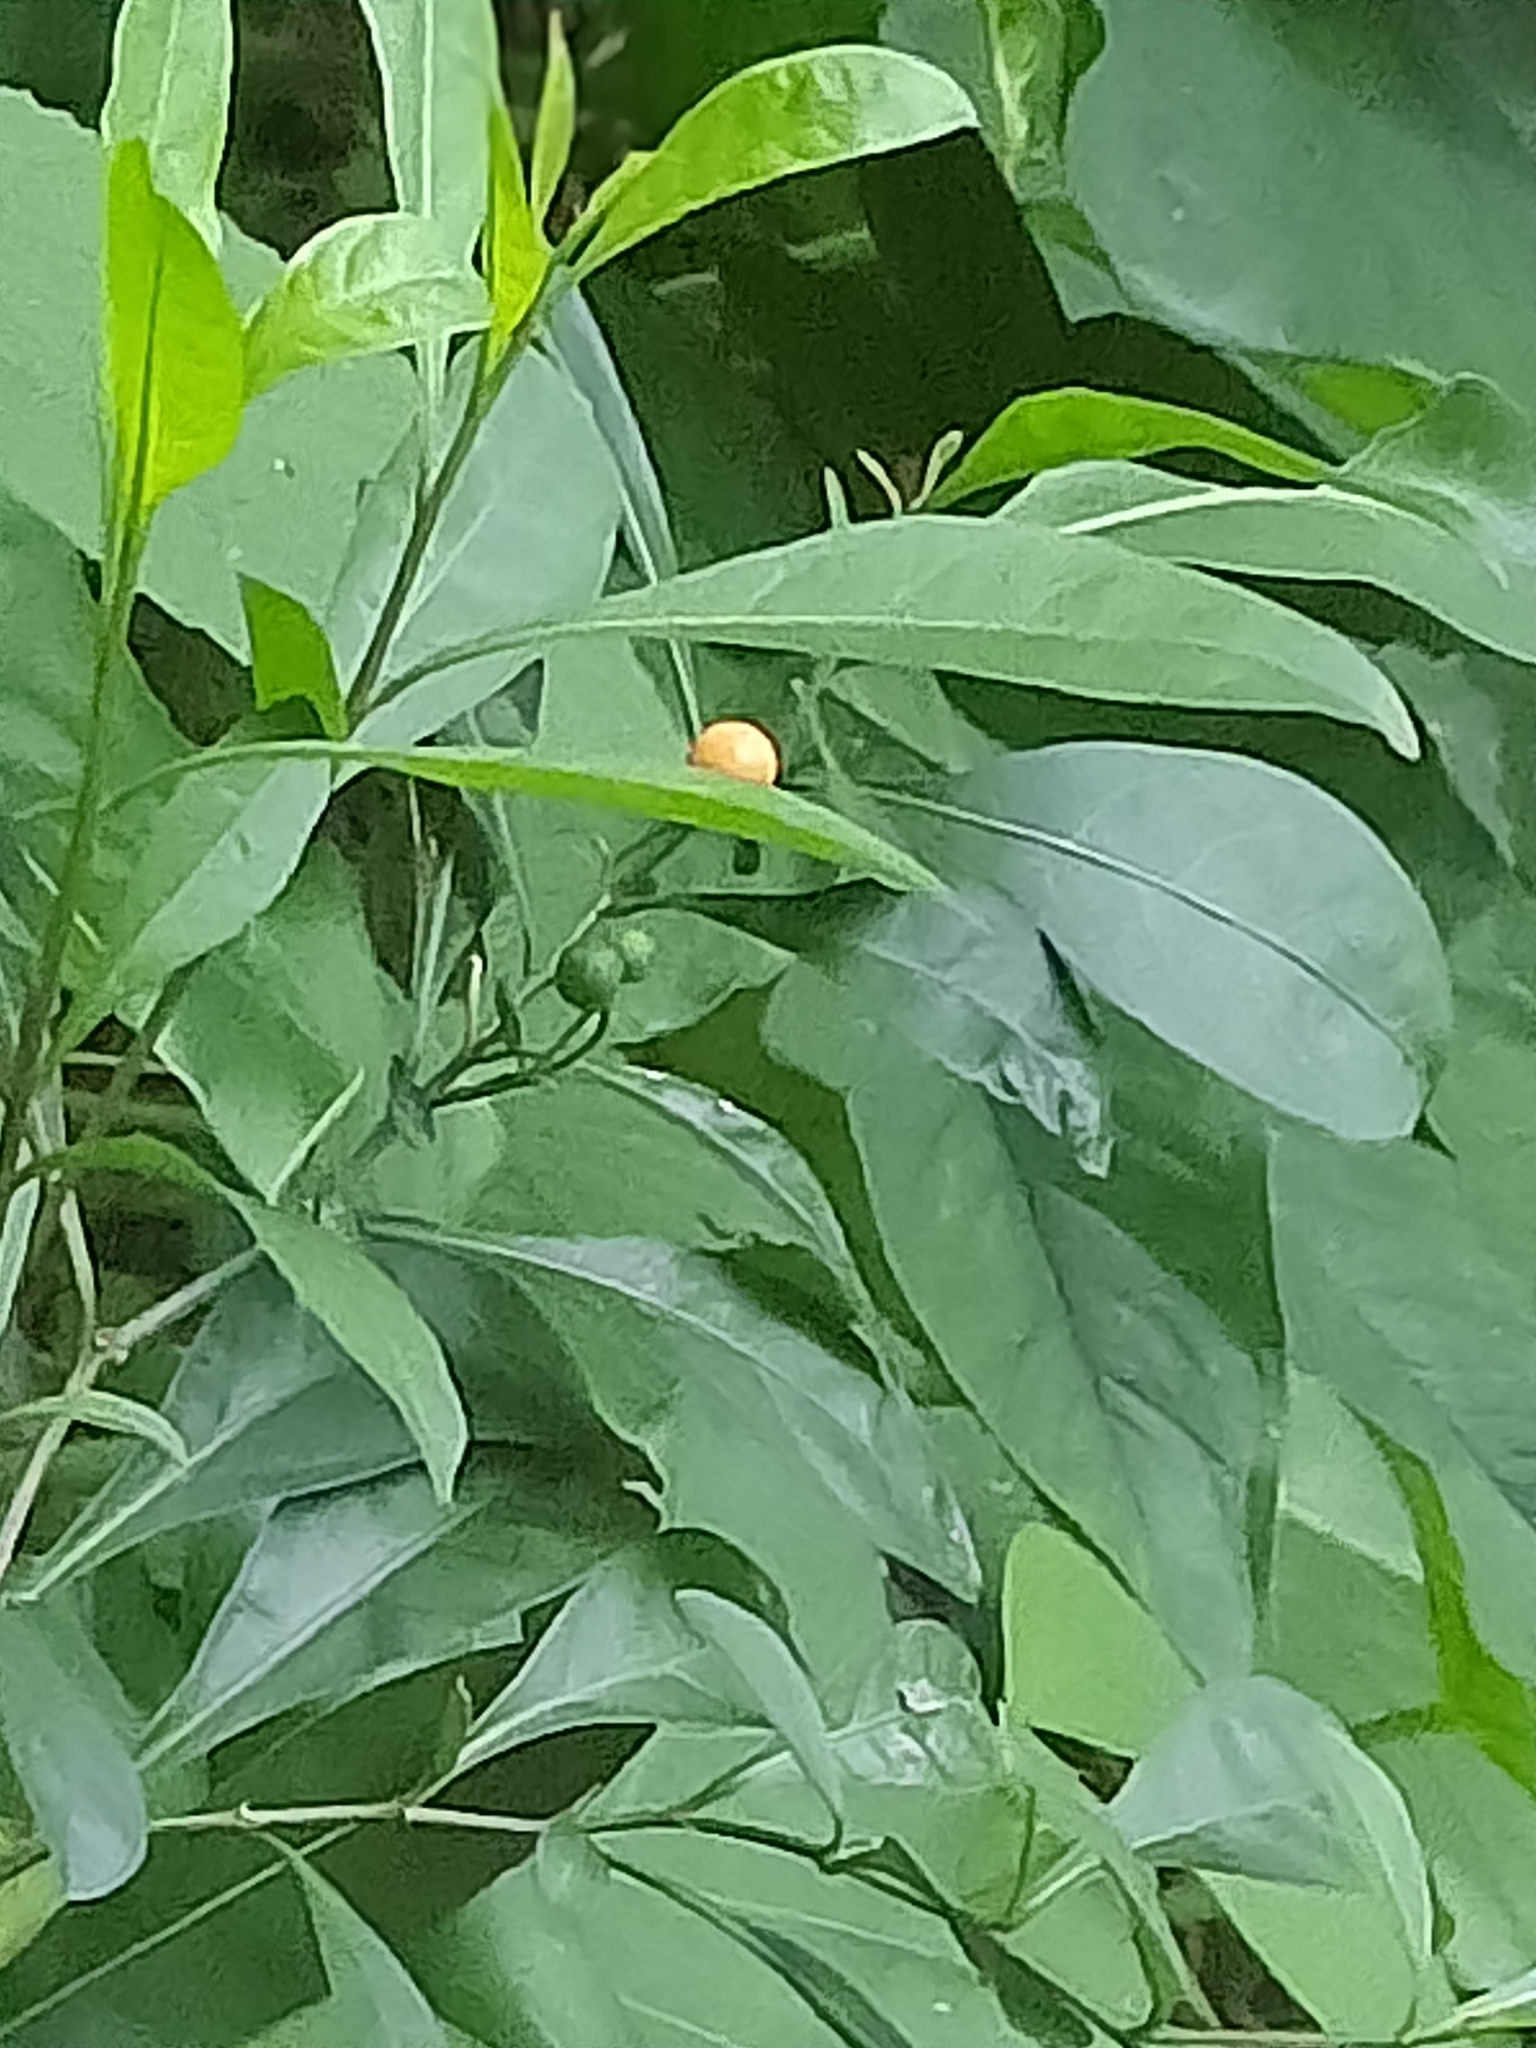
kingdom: Plantae
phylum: Tracheophyta
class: Magnoliopsida
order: Solanales
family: Solanaceae
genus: Solanum
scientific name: Solanum pseudocapsicum
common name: Jerusalem cherry
